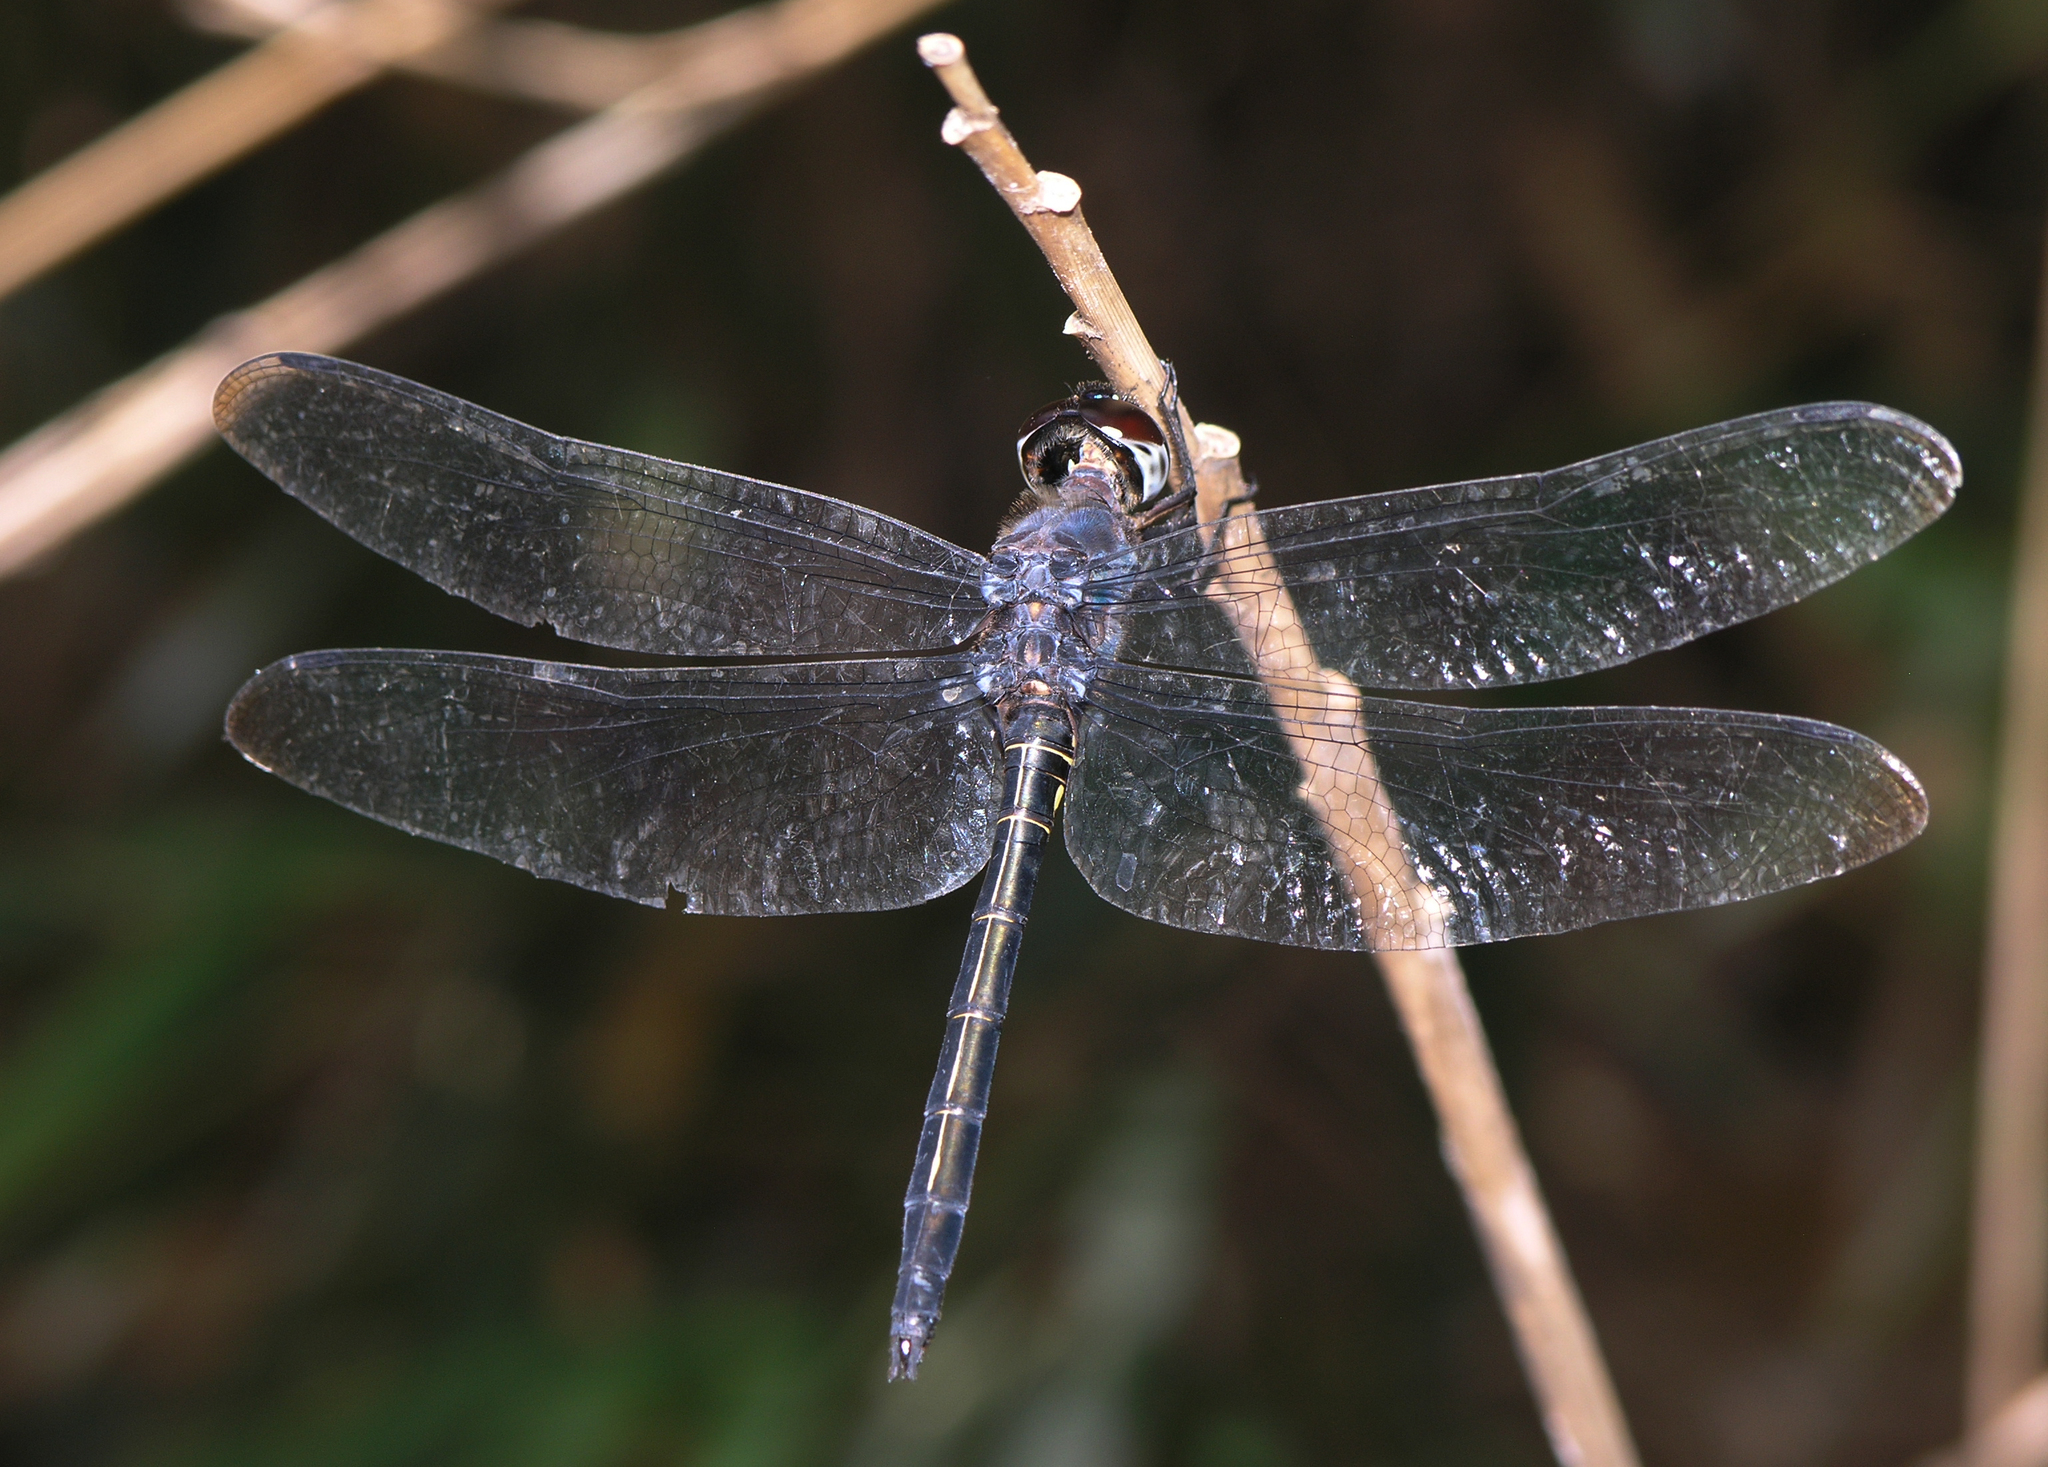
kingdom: Animalia
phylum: Arthropoda
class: Insecta
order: Odonata
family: Libellulidae
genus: Zygonyx
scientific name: Zygonyx iris
